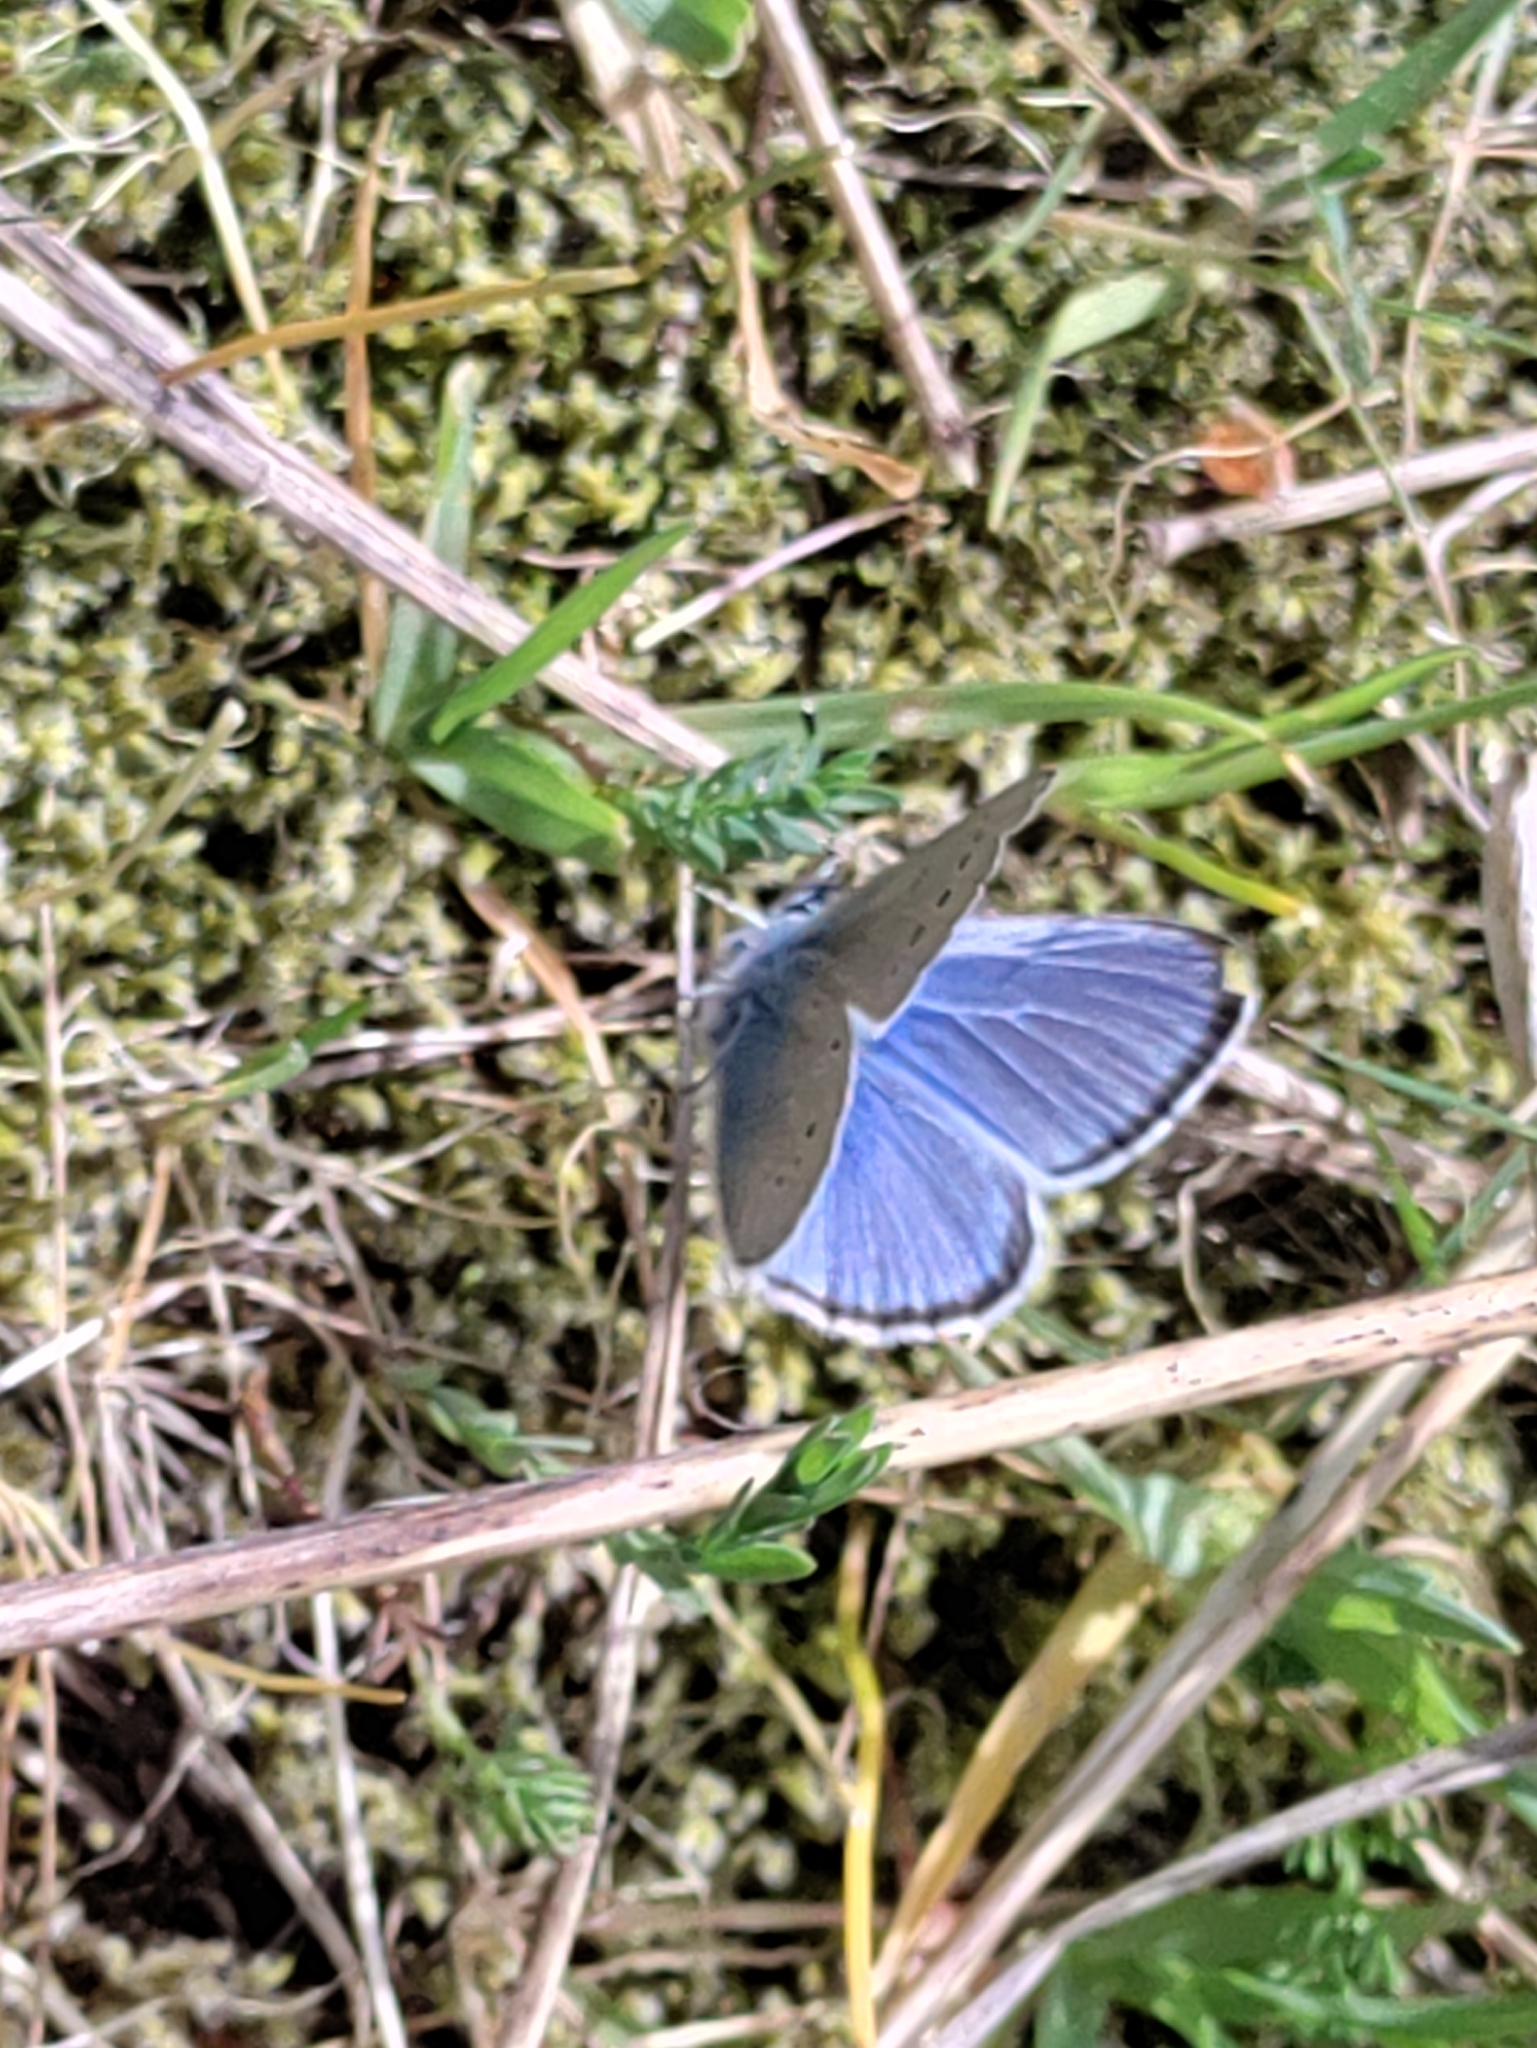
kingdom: Animalia
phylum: Arthropoda
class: Insecta
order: Lepidoptera
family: Lycaenidae
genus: Glaucopsyche
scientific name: Glaucopsyche lygdamus
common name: Silvery blue
